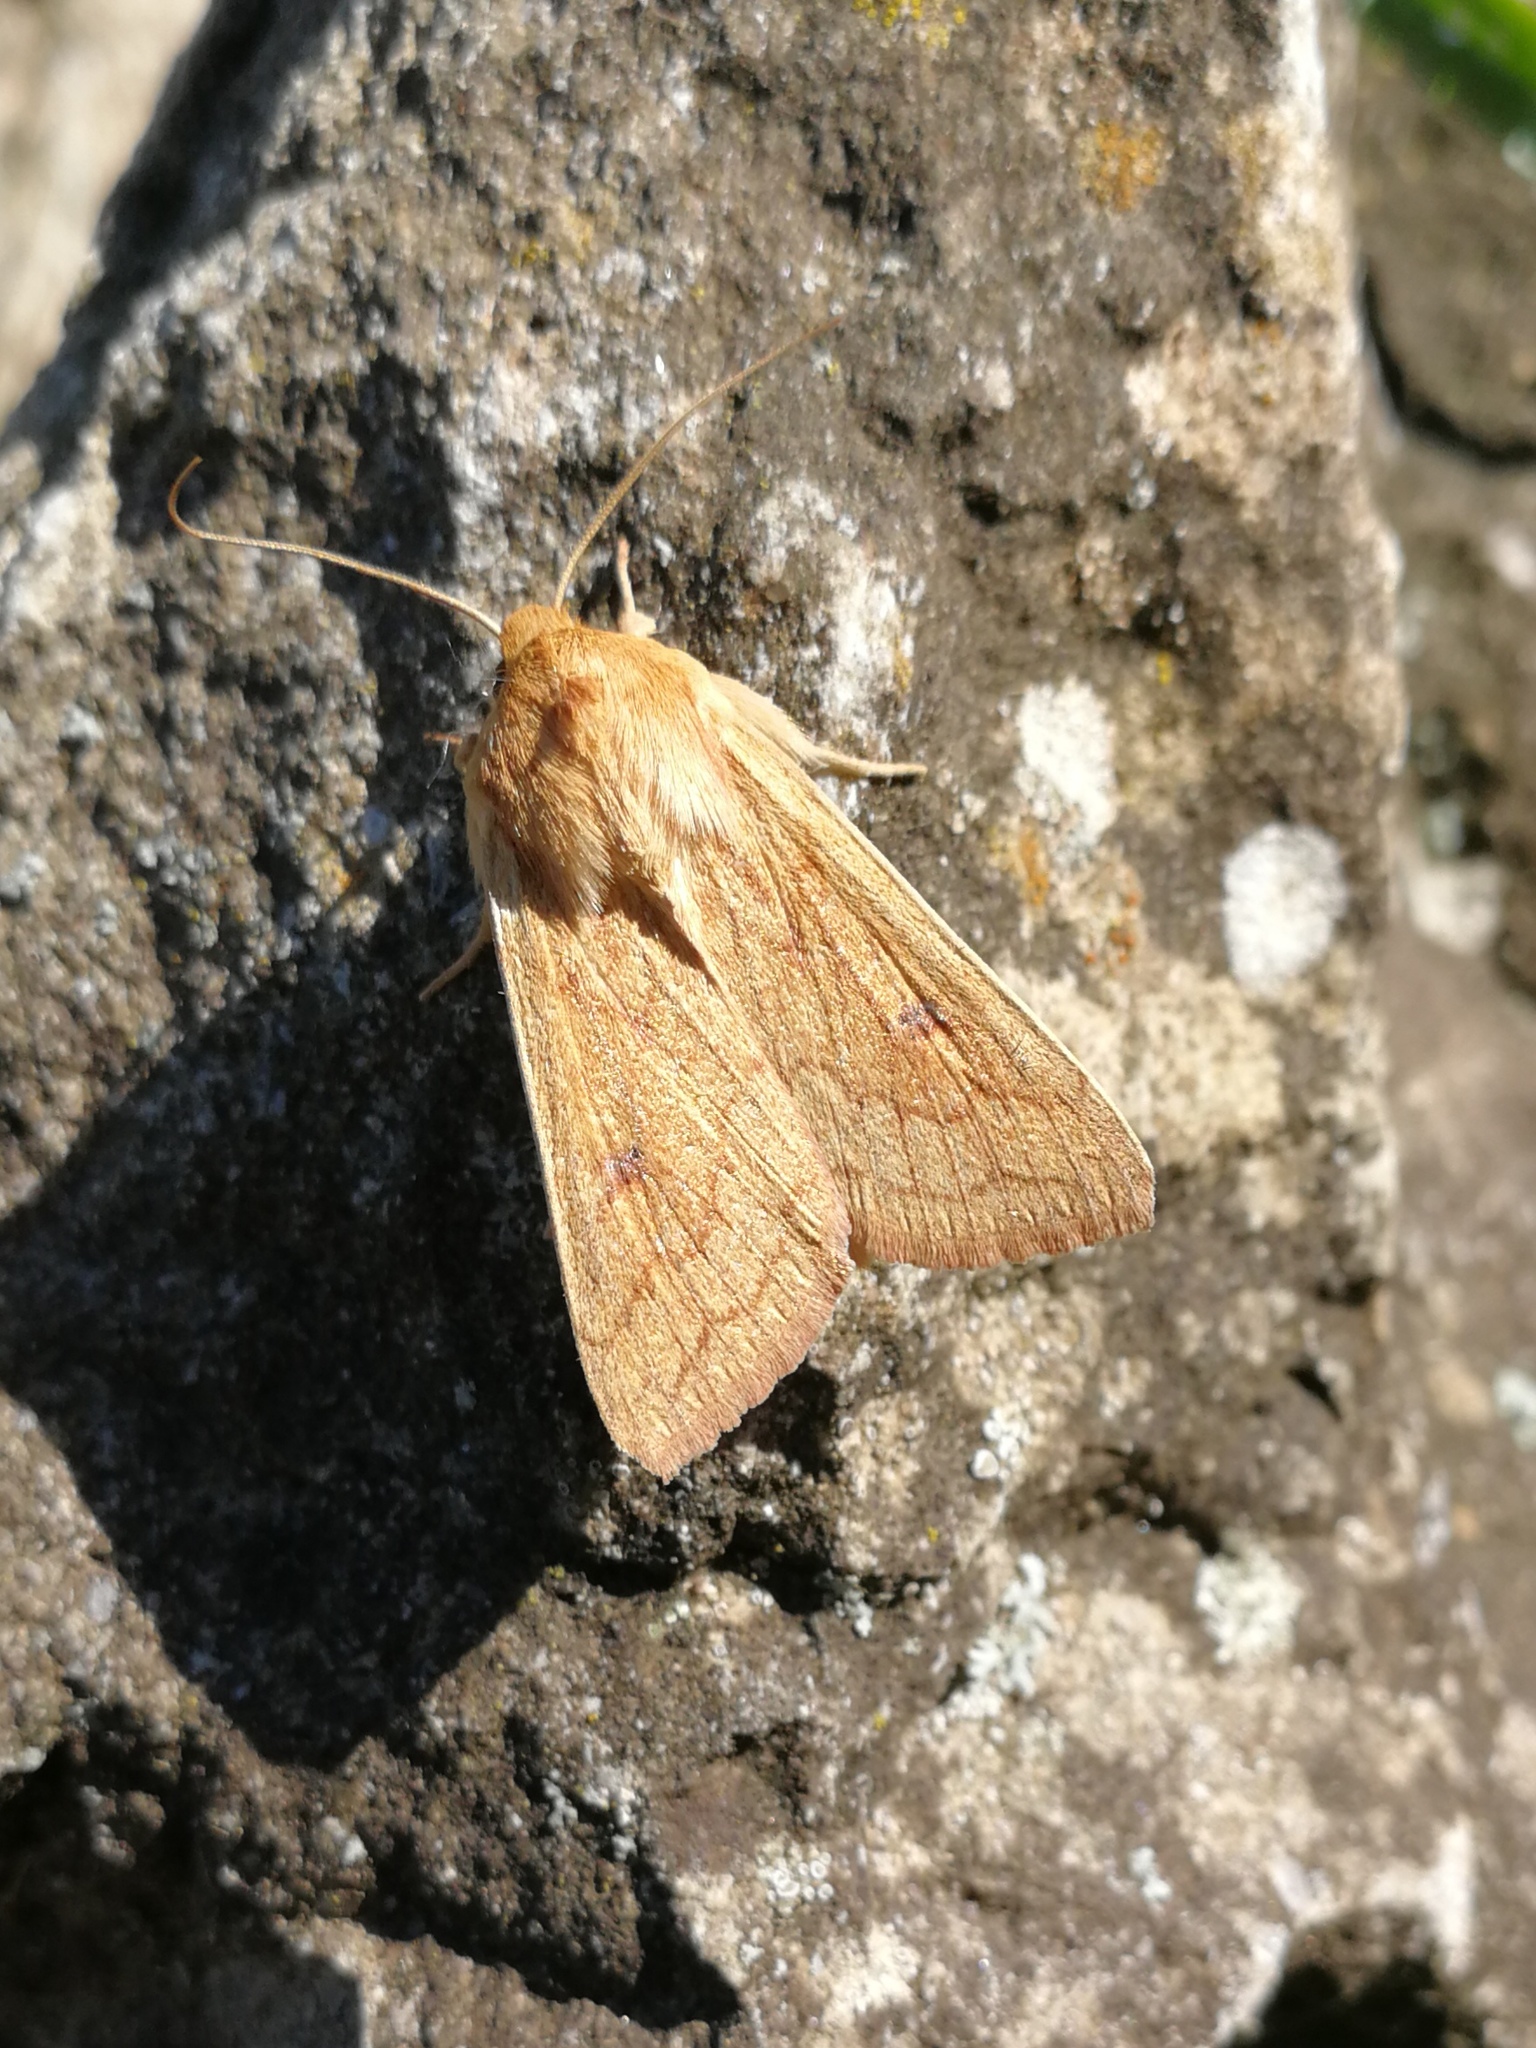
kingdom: Animalia
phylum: Arthropoda
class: Insecta
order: Lepidoptera
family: Noctuidae
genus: Mythimna
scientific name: Mythimna vitellina
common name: Delicate
